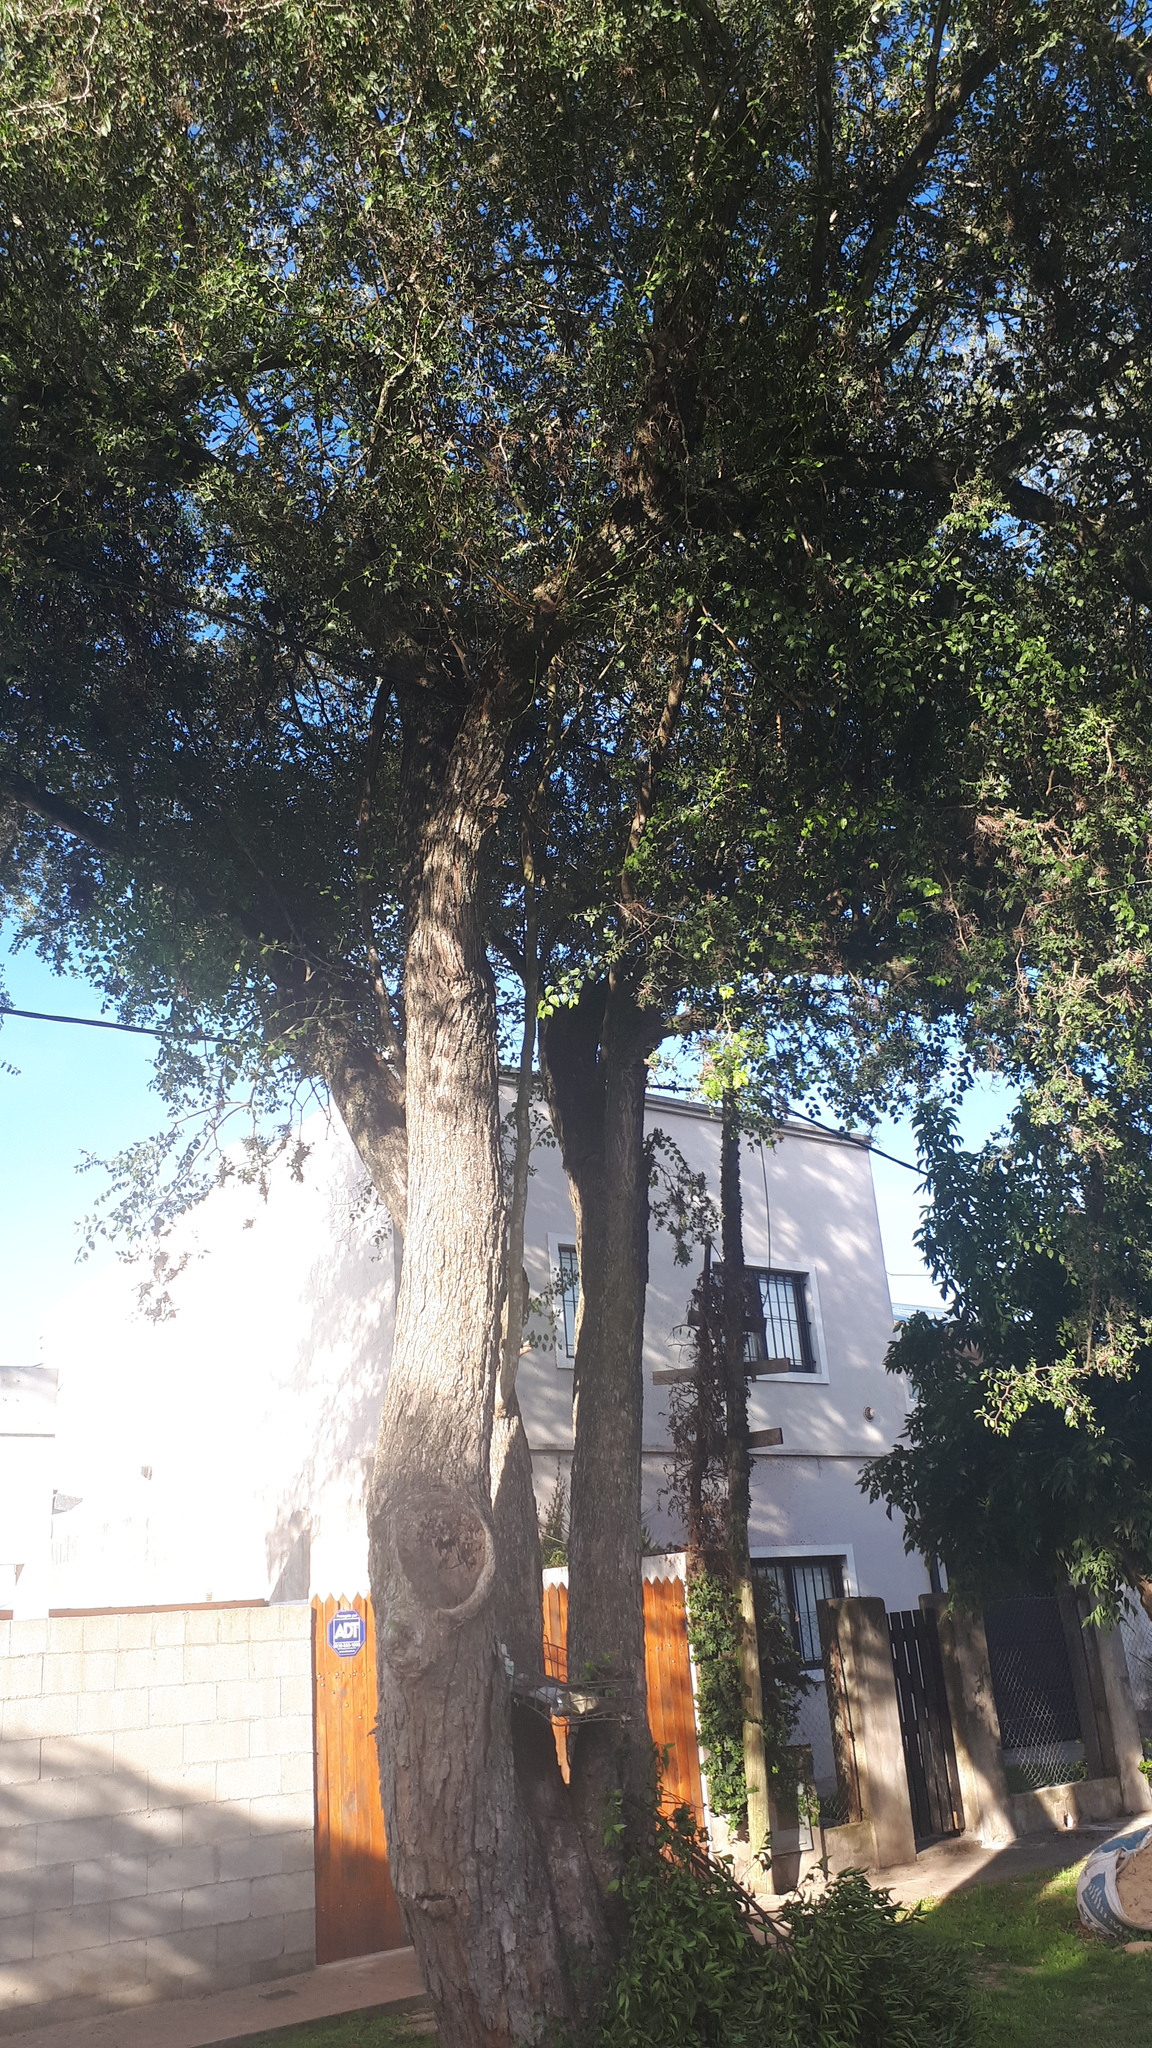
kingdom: Plantae
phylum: Tracheophyta
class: Magnoliopsida
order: Rosales
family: Cannabaceae
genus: Celtis
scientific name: Celtis tala
